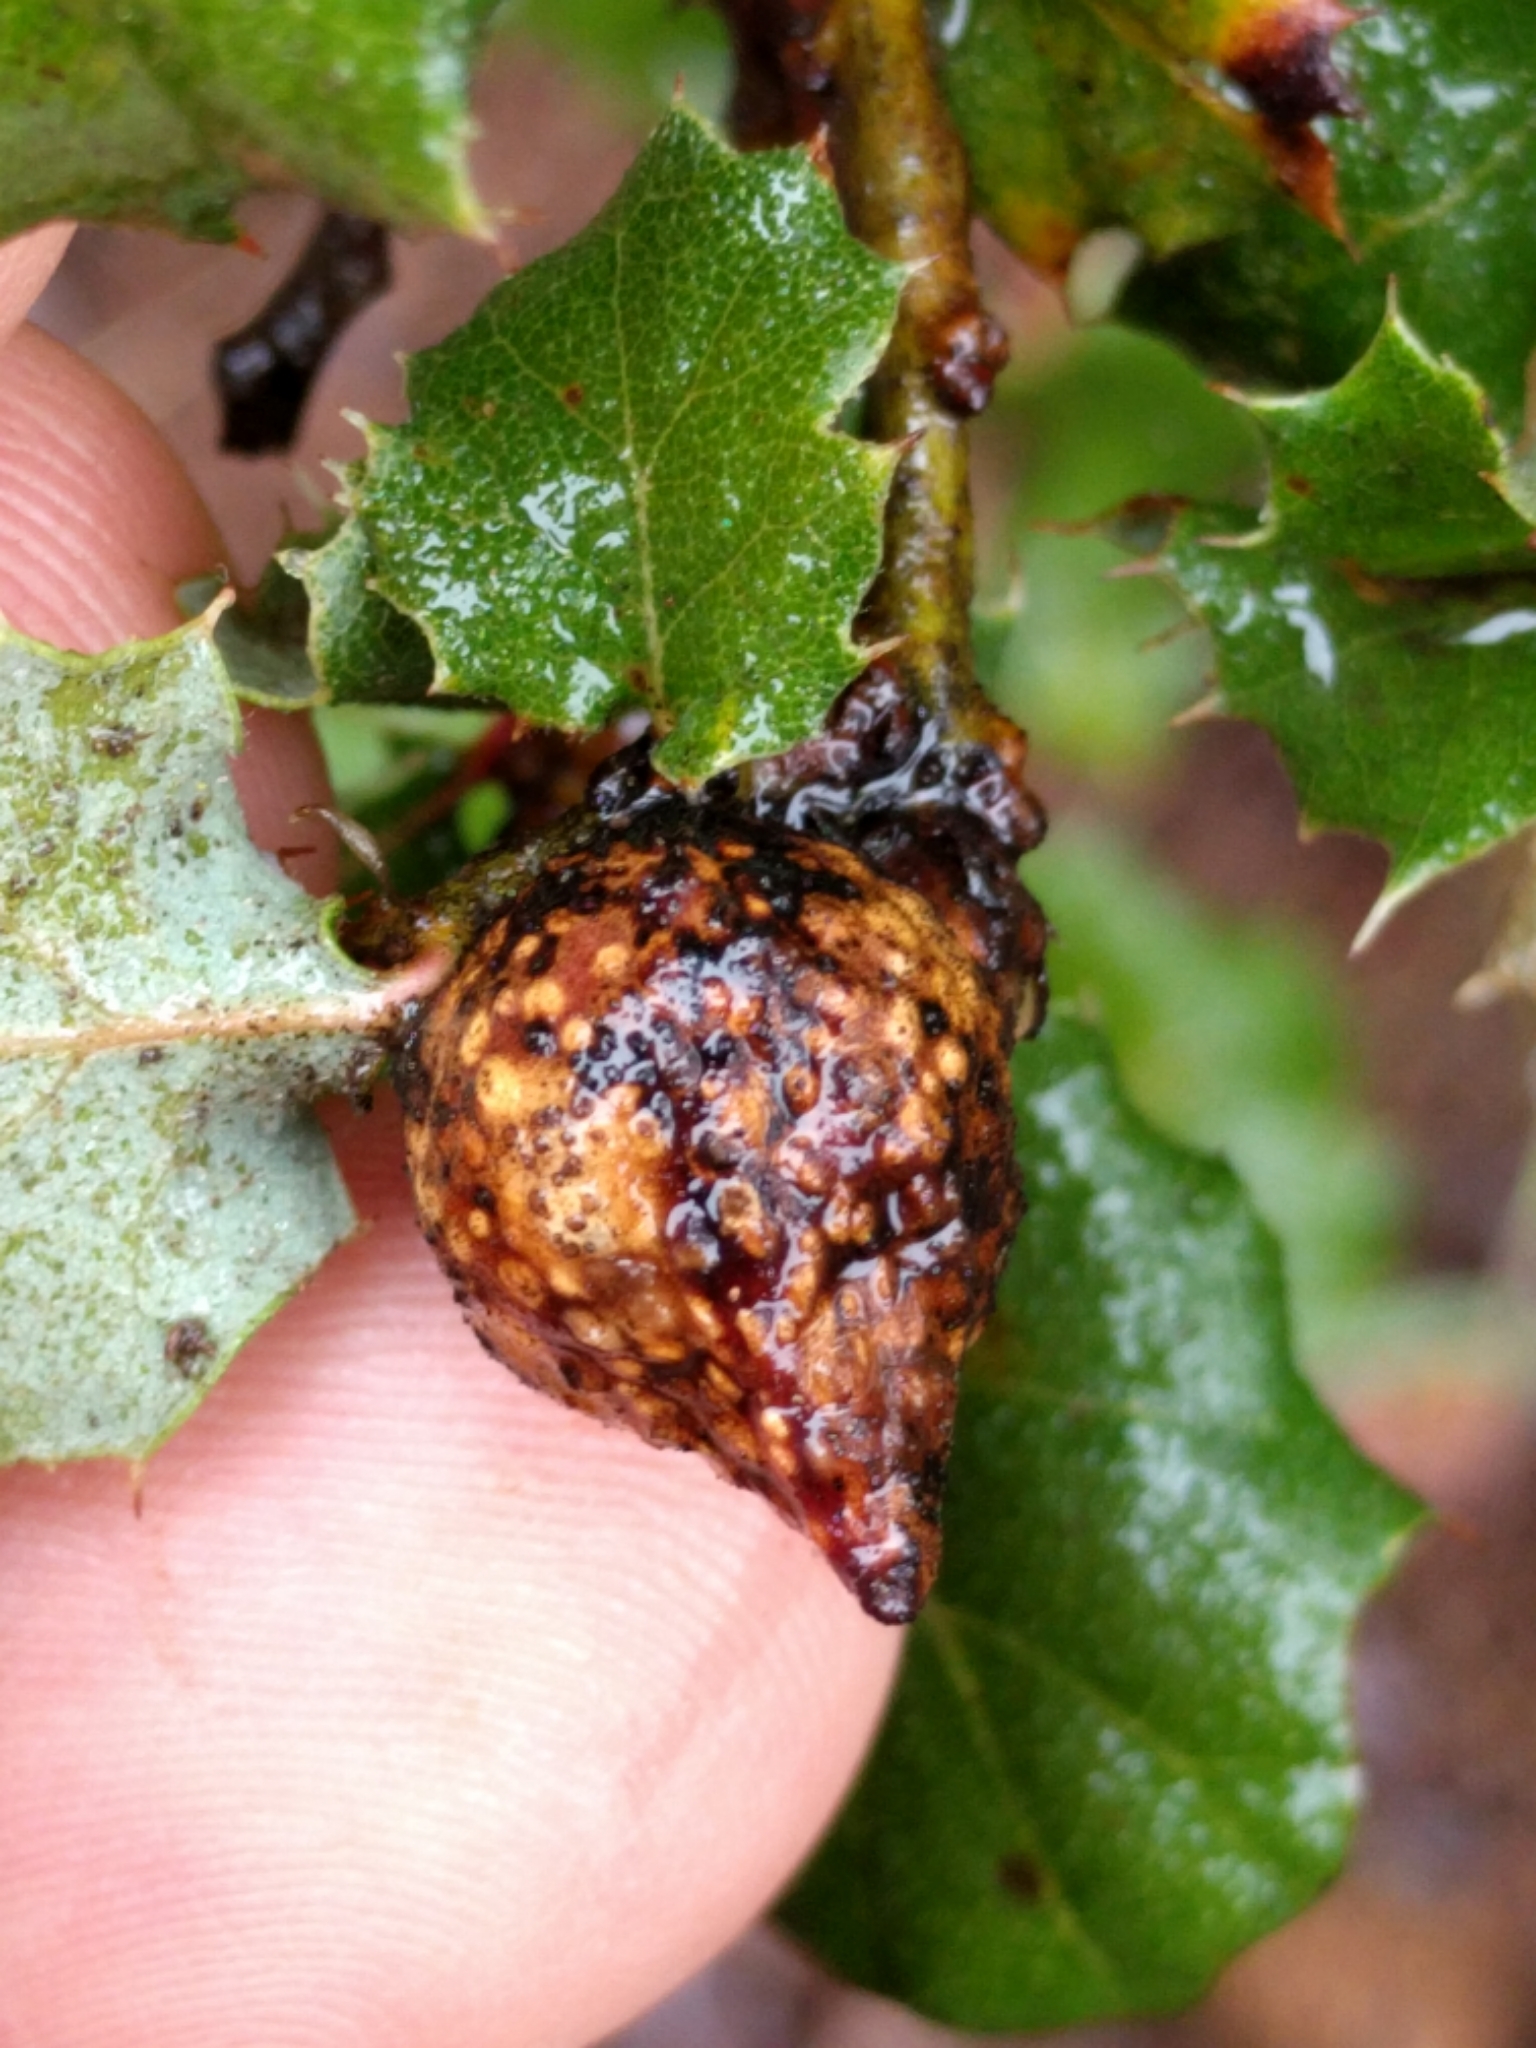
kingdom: Animalia
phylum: Arthropoda
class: Insecta
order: Hymenoptera
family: Cynipidae
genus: Burnettweldia
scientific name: Burnettweldia
